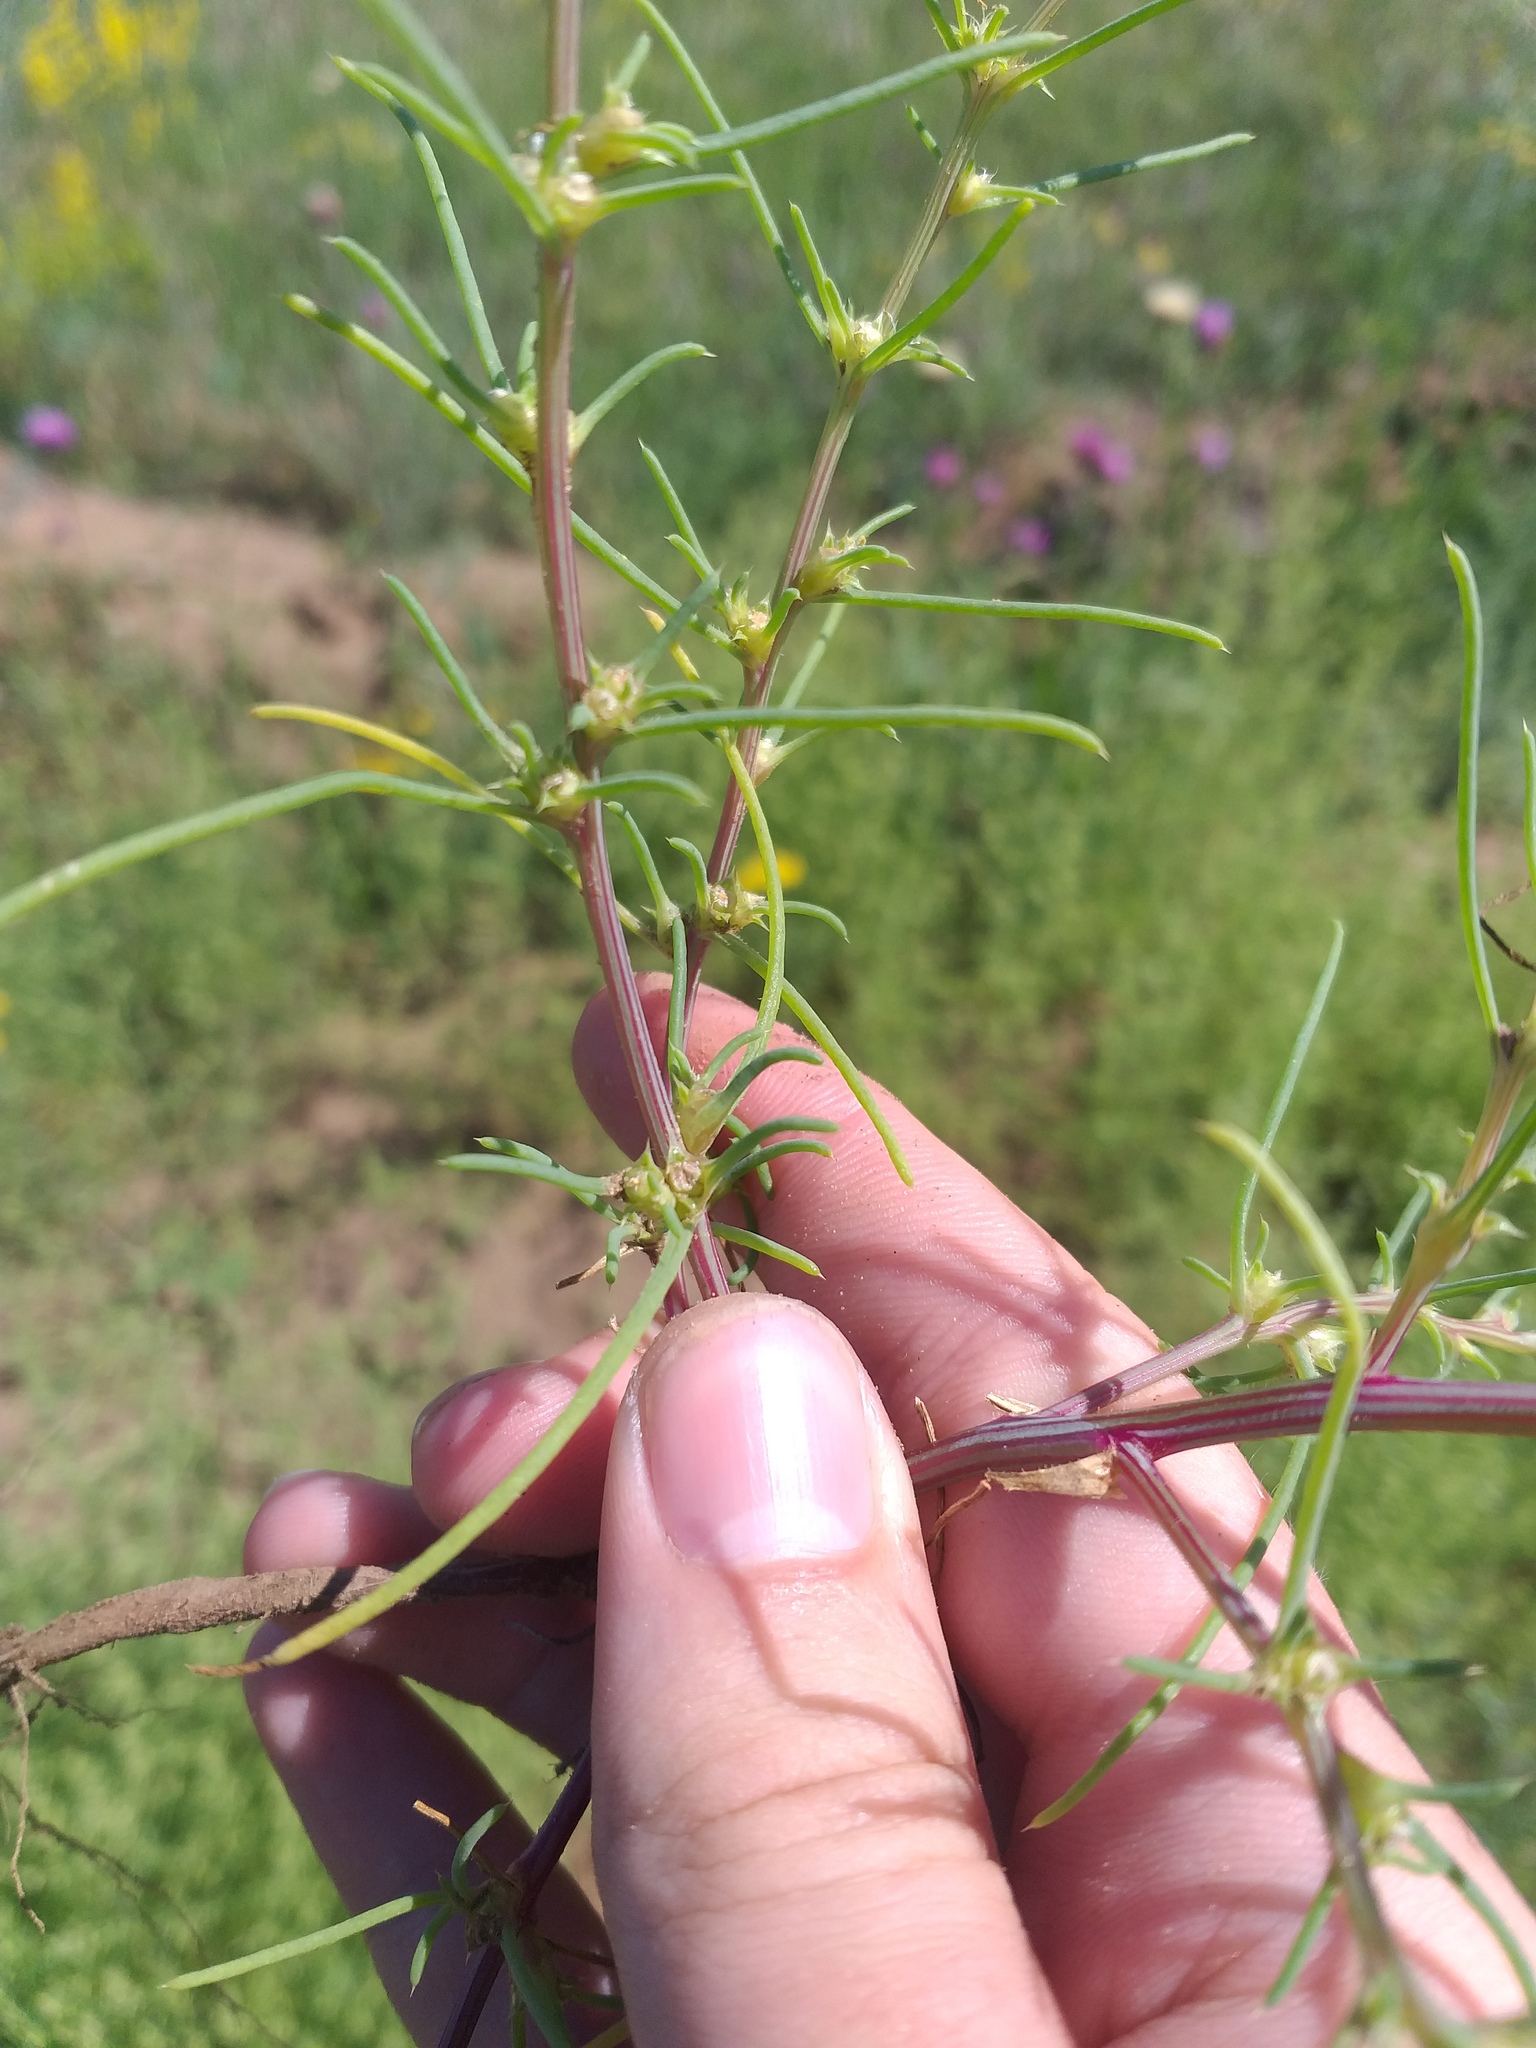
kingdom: Plantae
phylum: Tracheophyta
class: Magnoliopsida
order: Caryophyllales
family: Amaranthaceae
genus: Salsola
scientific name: Salsola tragus
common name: Prickly russian thistle
